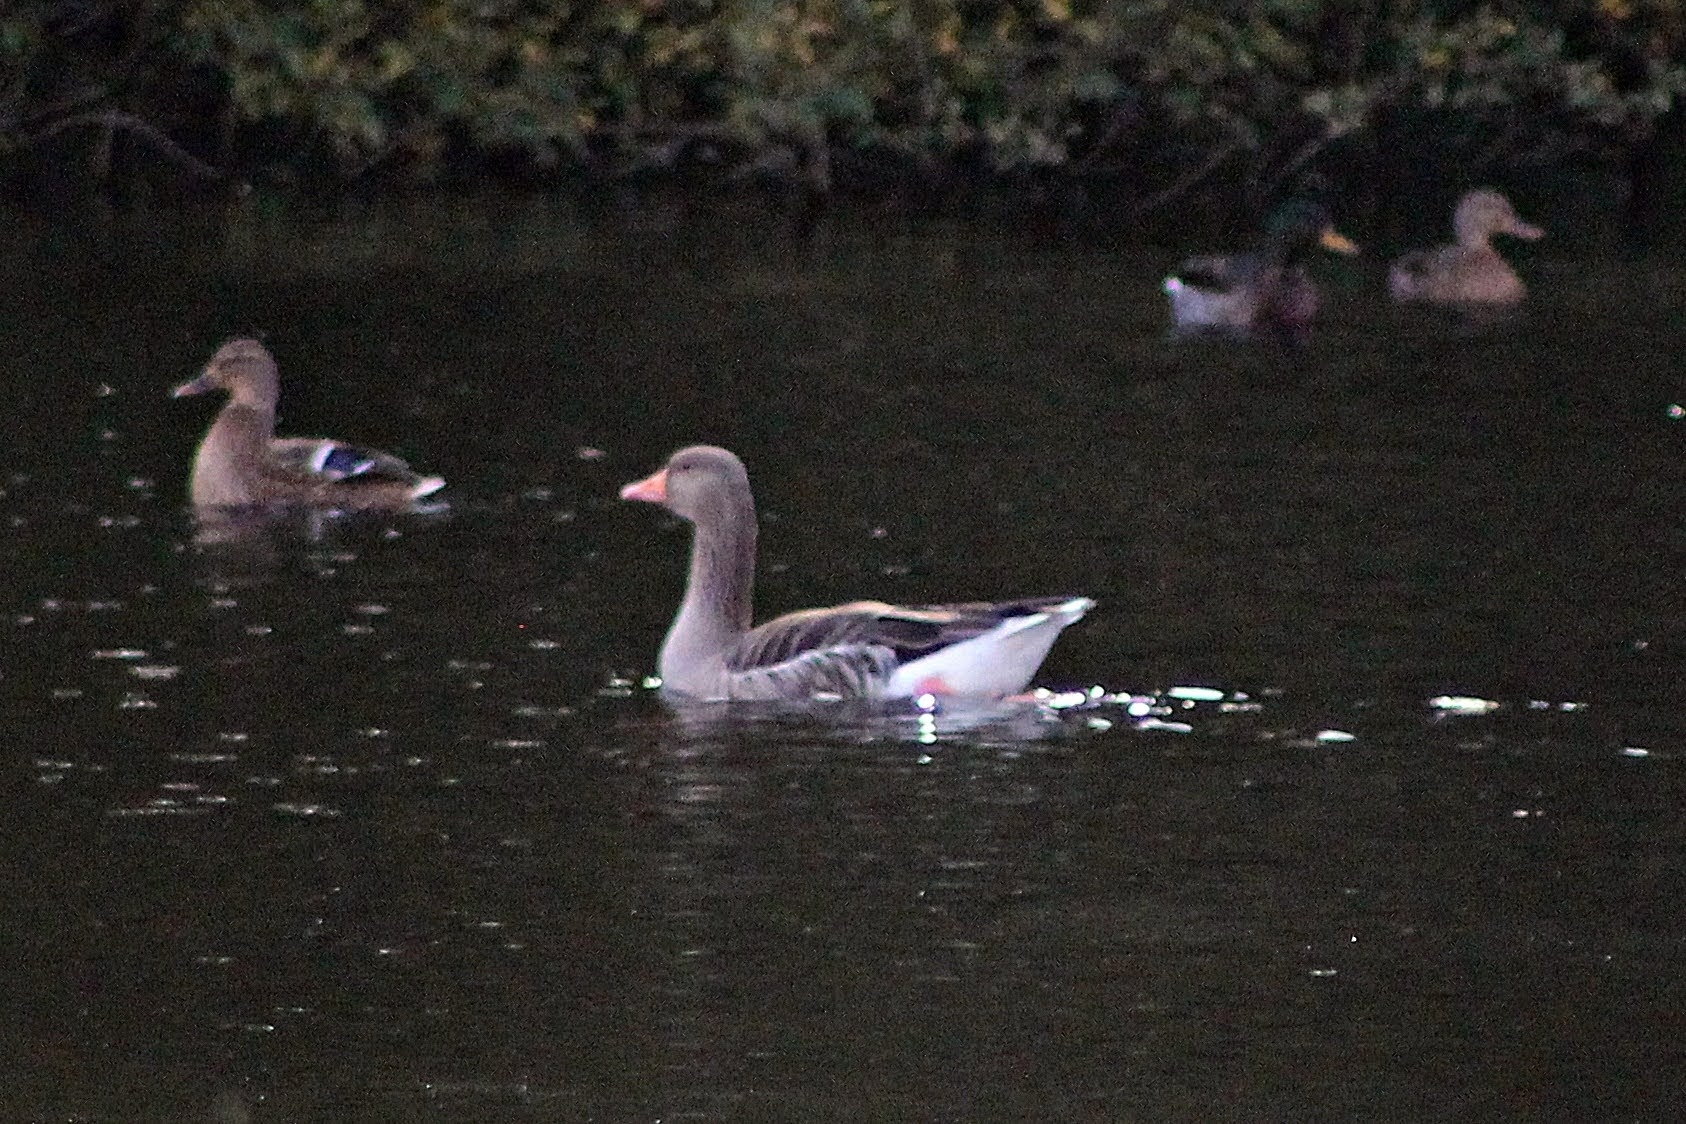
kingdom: Animalia
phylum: Chordata
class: Aves
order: Anseriformes
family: Anatidae
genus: Anser
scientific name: Anser anser
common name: Greylag goose
